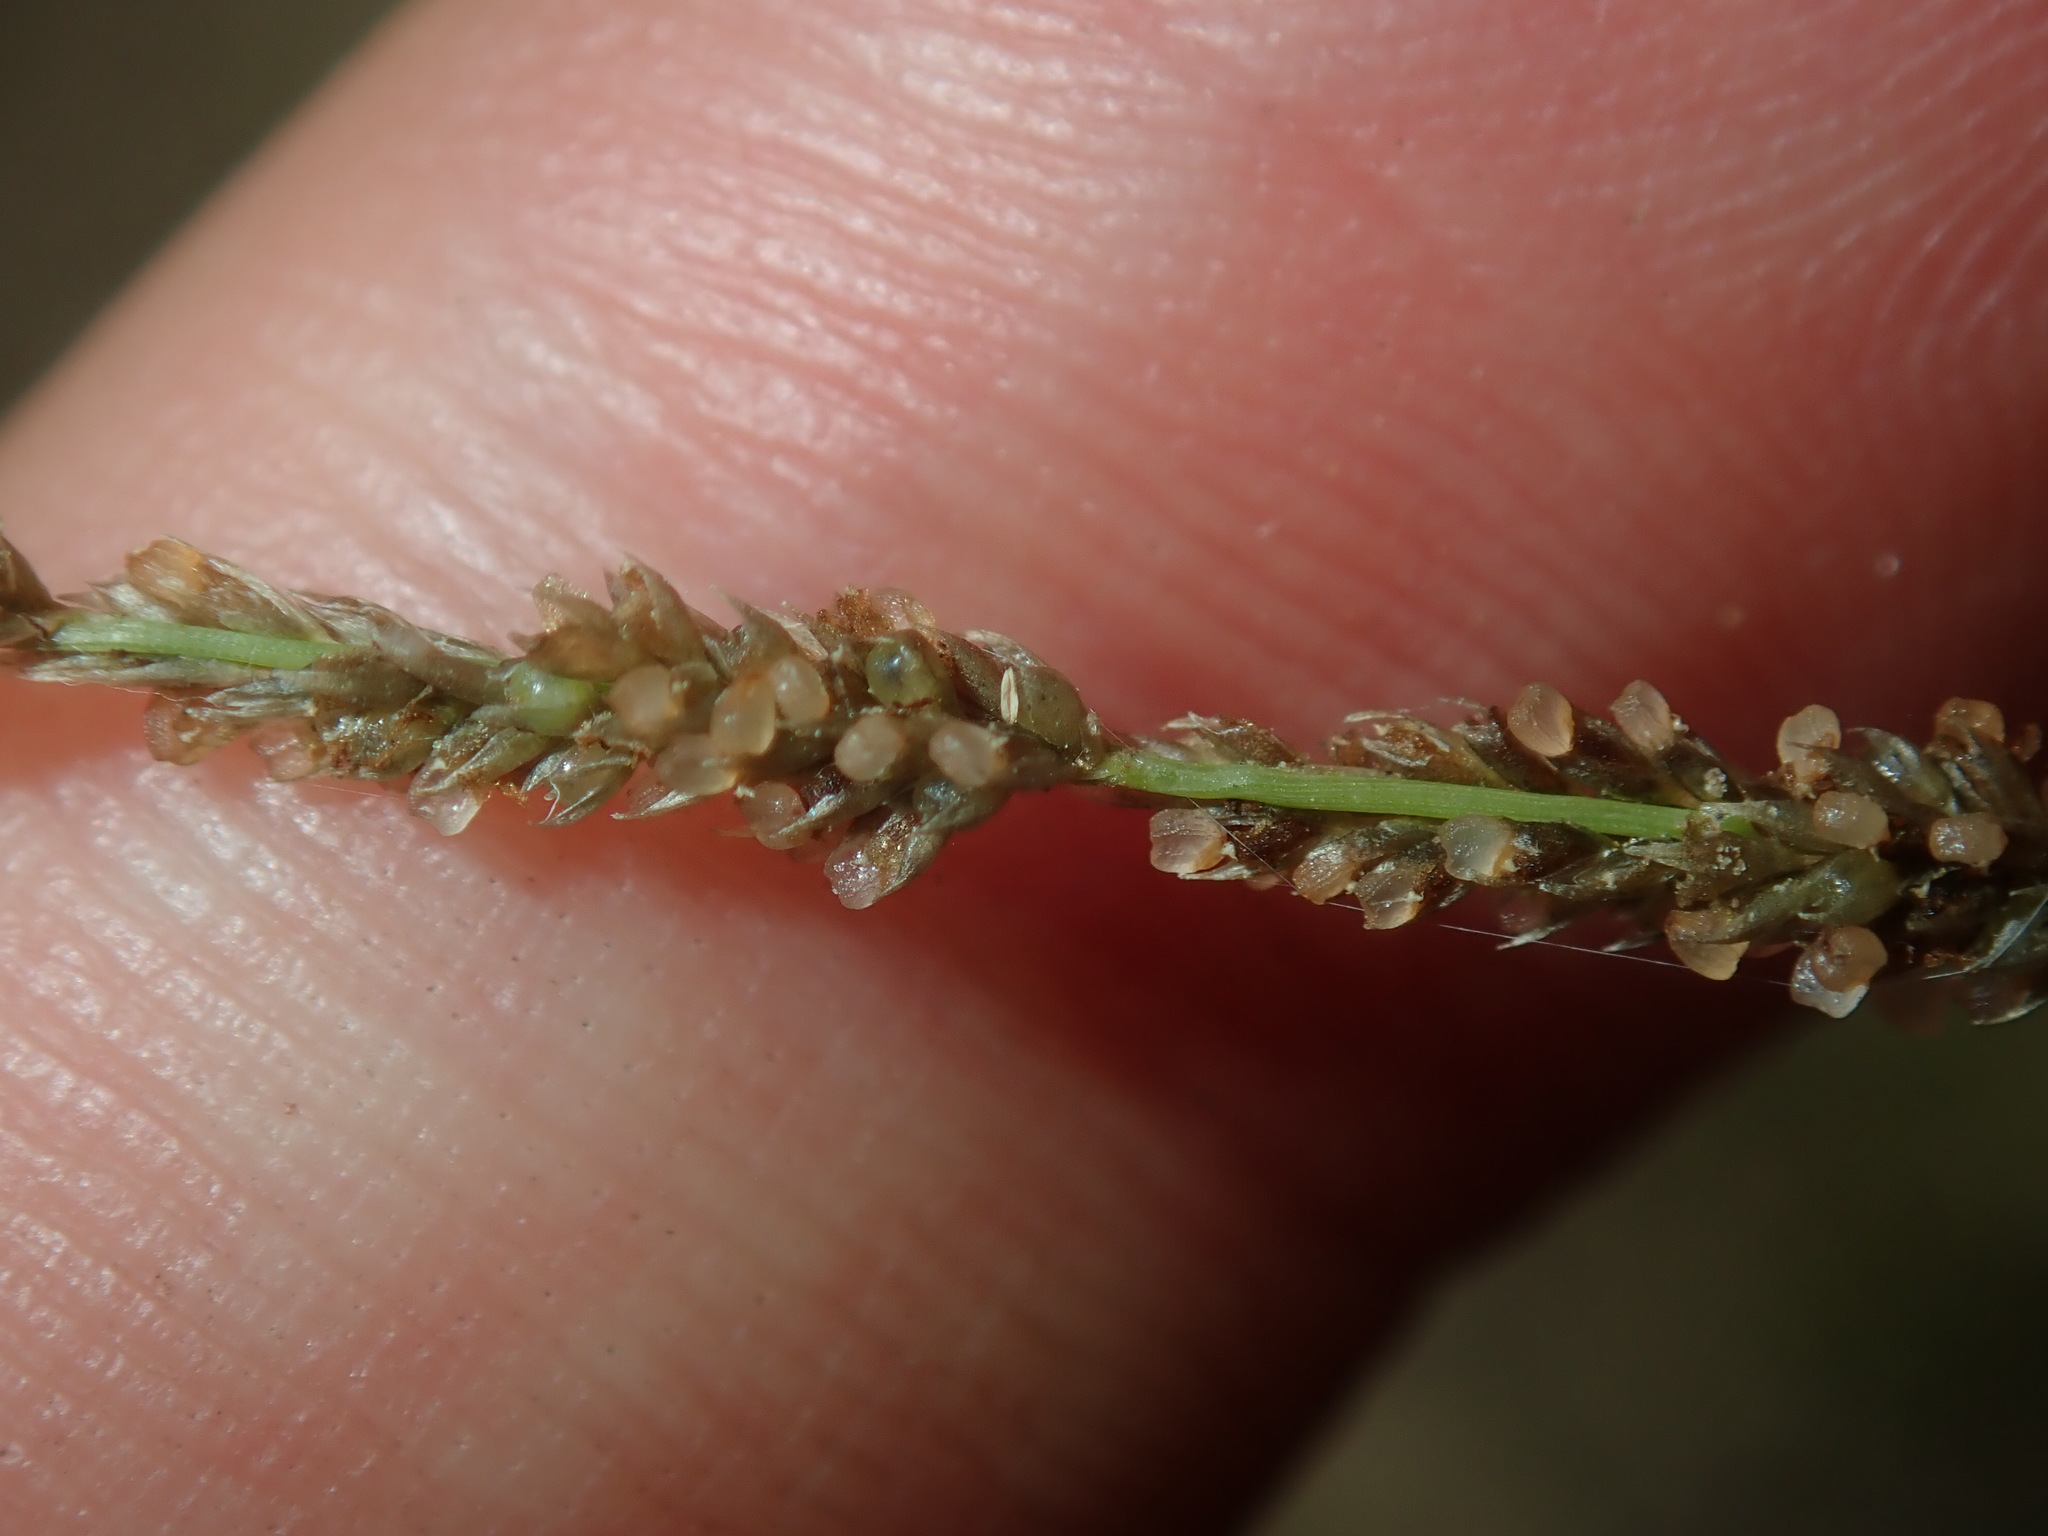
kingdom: Plantae
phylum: Tracheophyta
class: Liliopsida
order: Poales
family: Poaceae
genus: Sporobolus
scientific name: Sporobolus creber
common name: Slender dropseed
